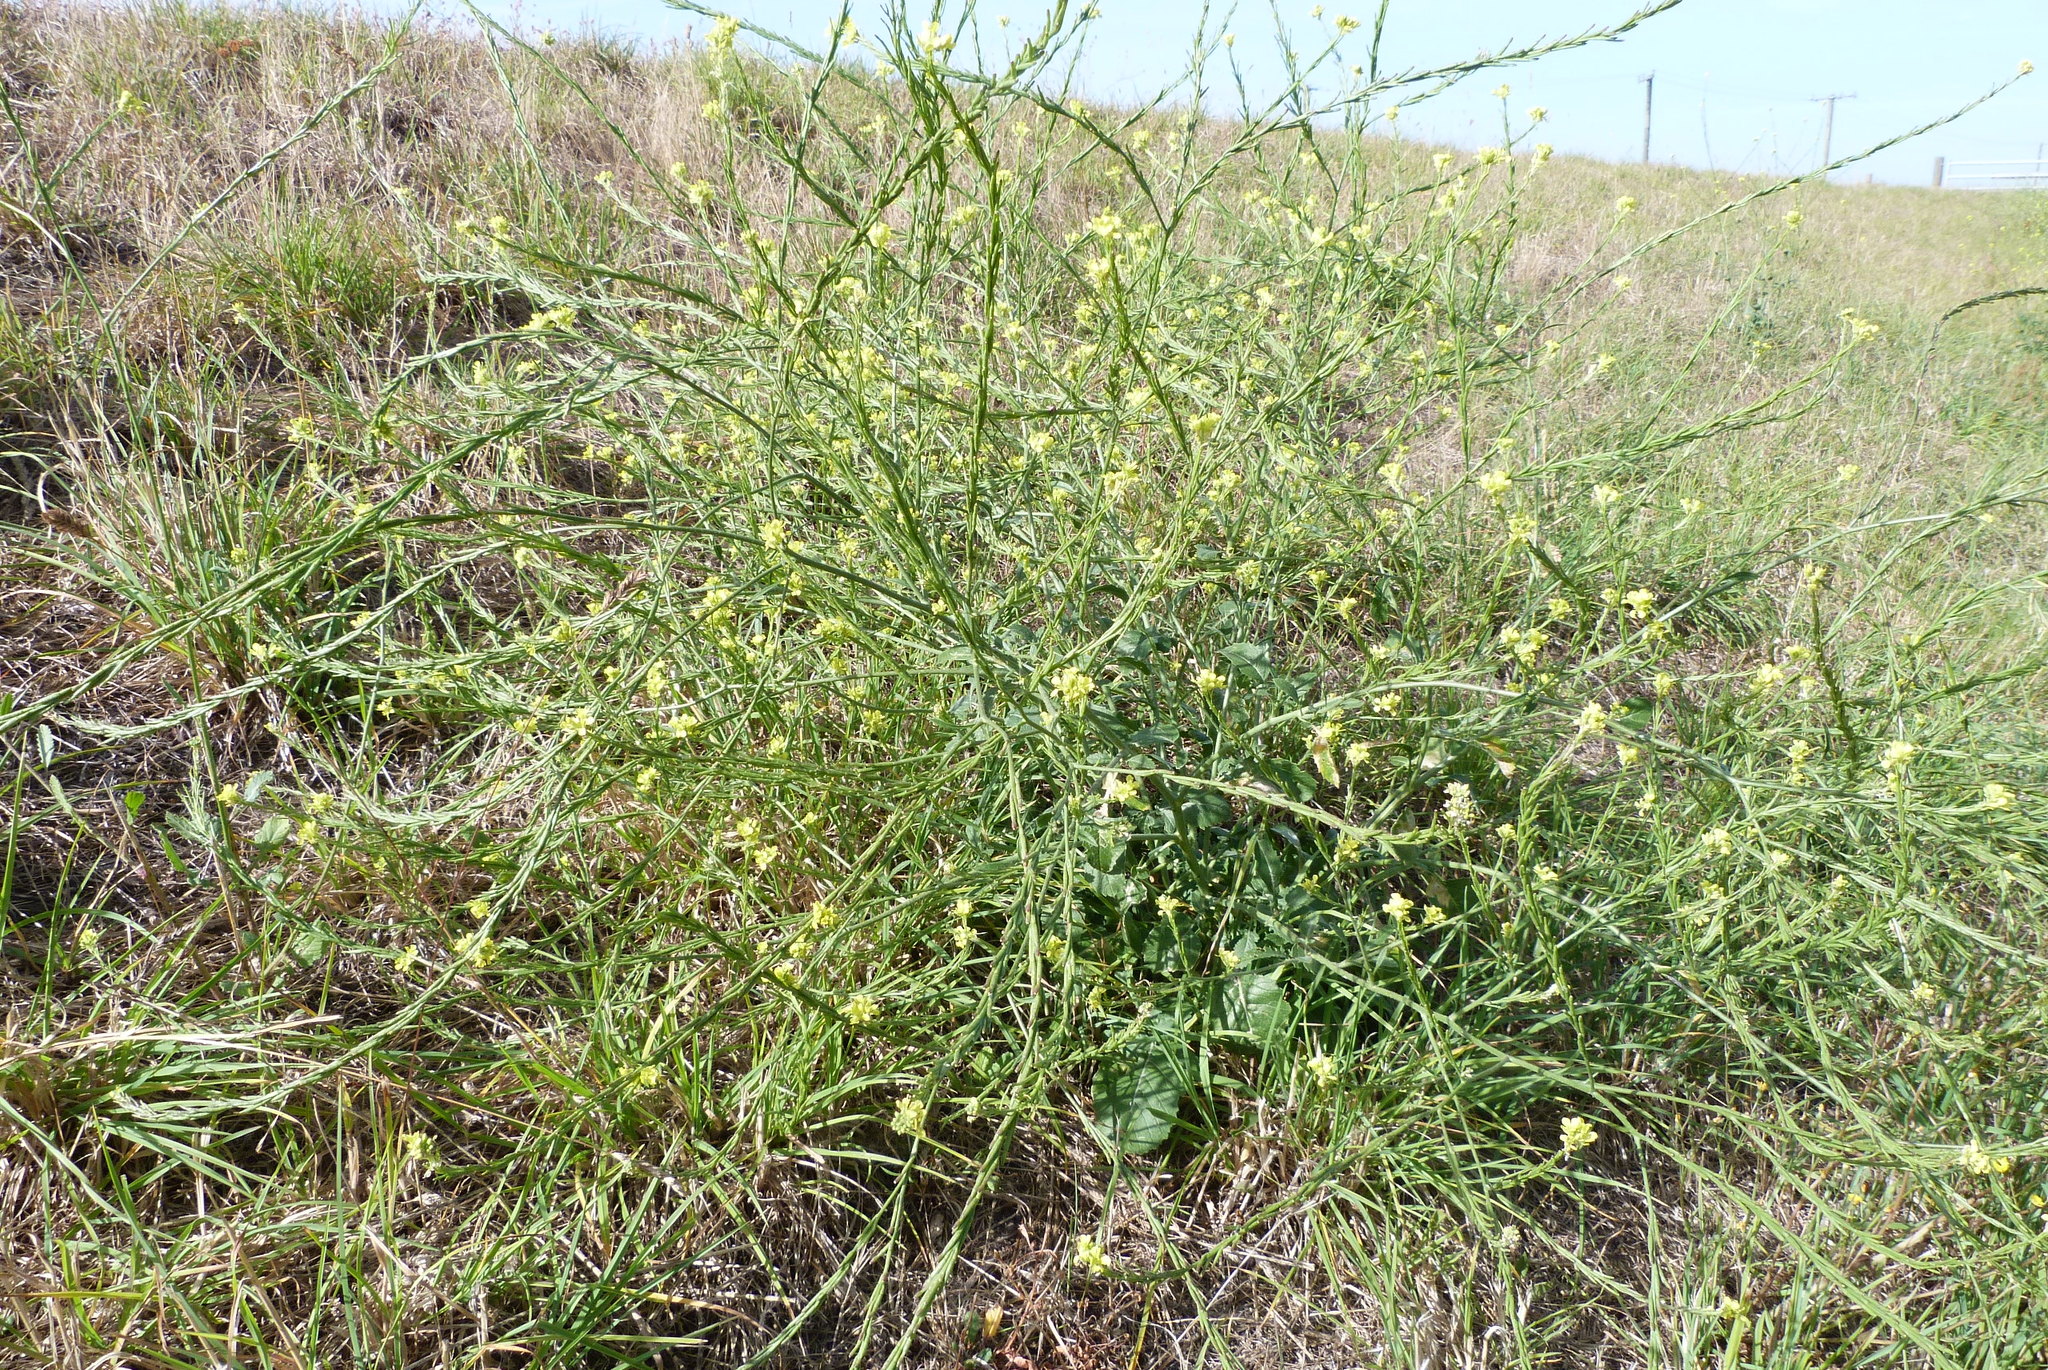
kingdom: Plantae
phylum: Tracheophyta
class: Magnoliopsida
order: Brassicales
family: Brassicaceae
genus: Sisymbrium
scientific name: Sisymbrium officinale
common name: Hedge mustard
